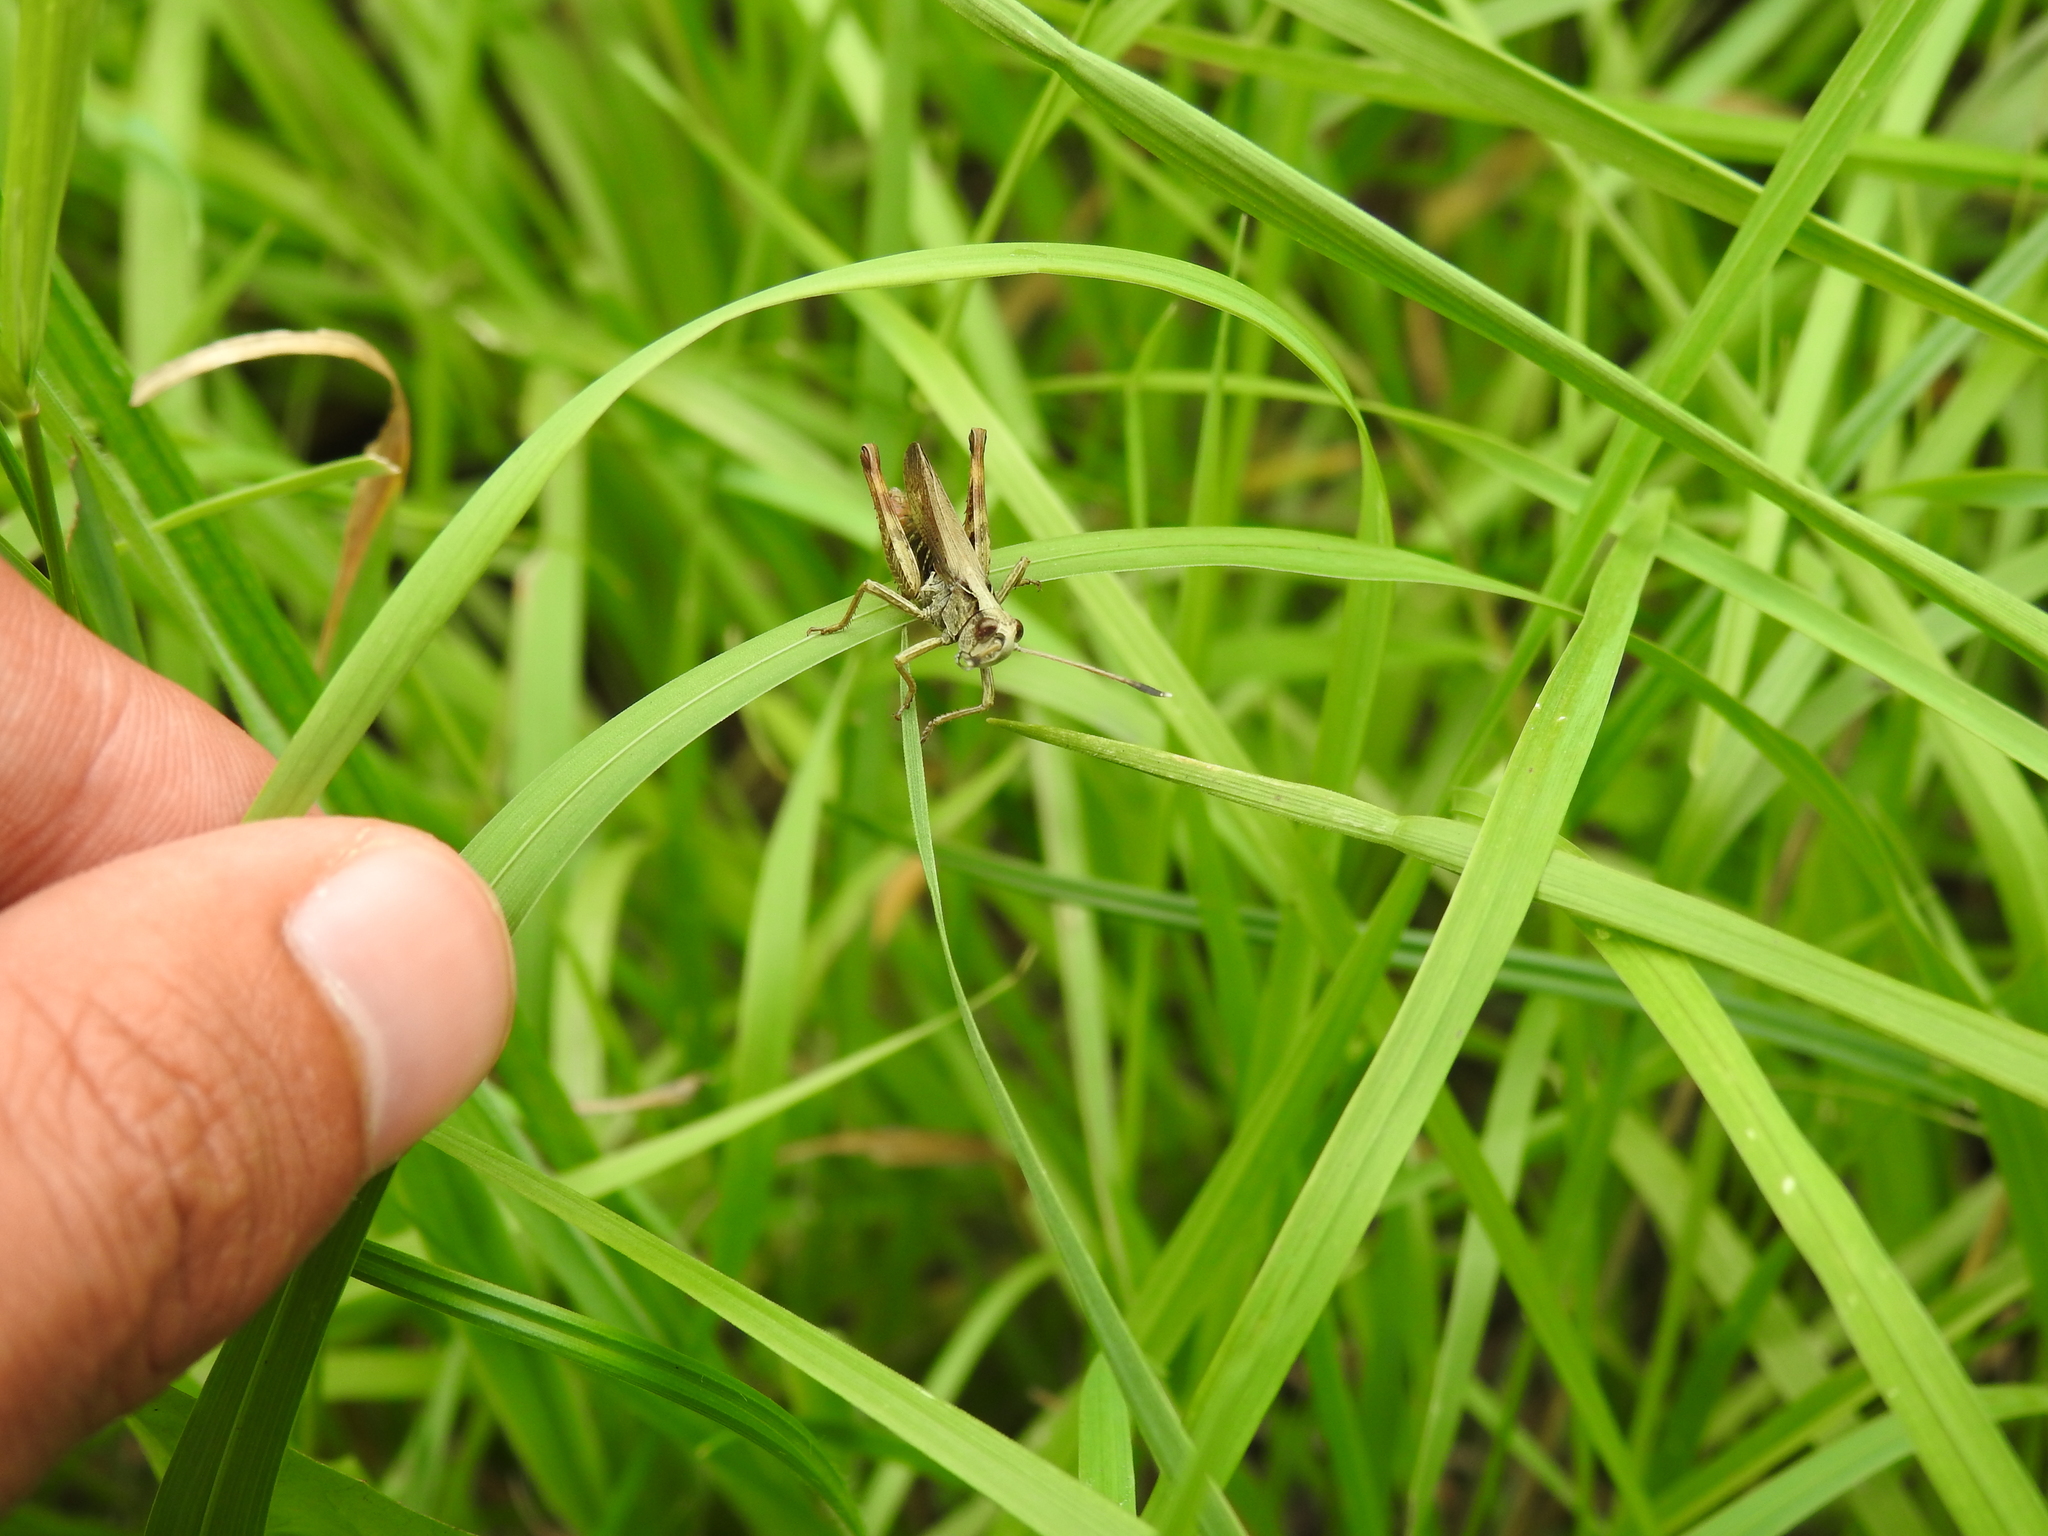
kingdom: Animalia
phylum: Arthropoda
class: Insecta
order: Orthoptera
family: Acrididae
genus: Gomphocerippus
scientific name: Gomphocerippus rufus
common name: Rufous grasshopper
